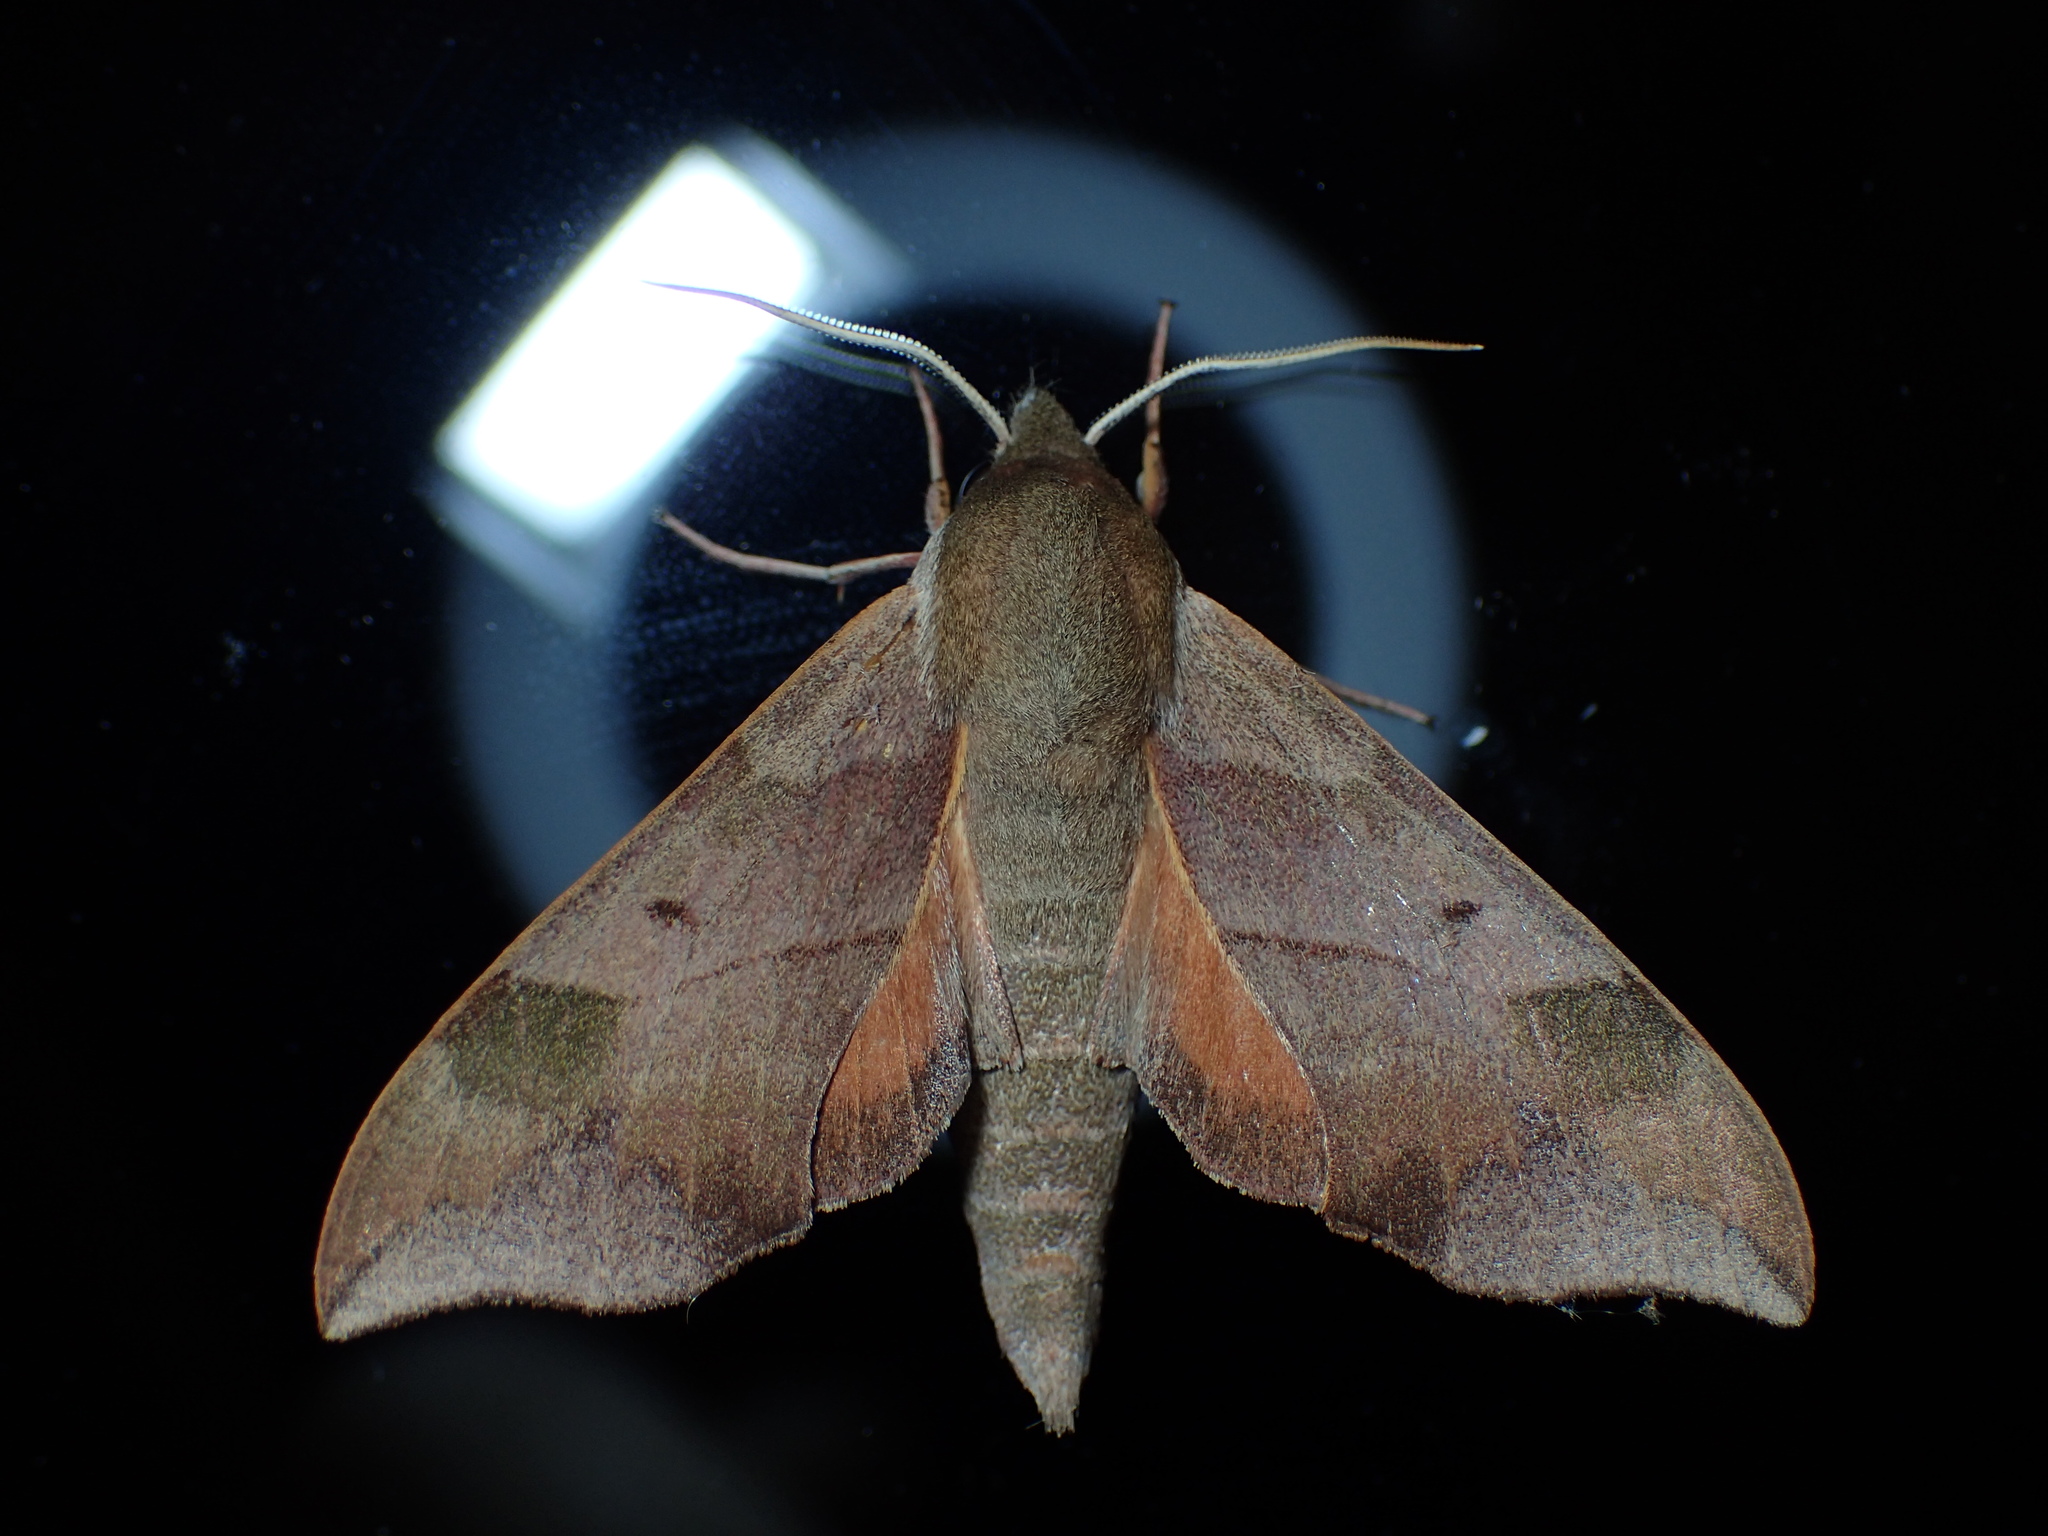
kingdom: Animalia
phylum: Arthropoda
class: Insecta
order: Lepidoptera
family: Sphingidae
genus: Darapsa
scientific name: Darapsa myron
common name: Hog sphinx
